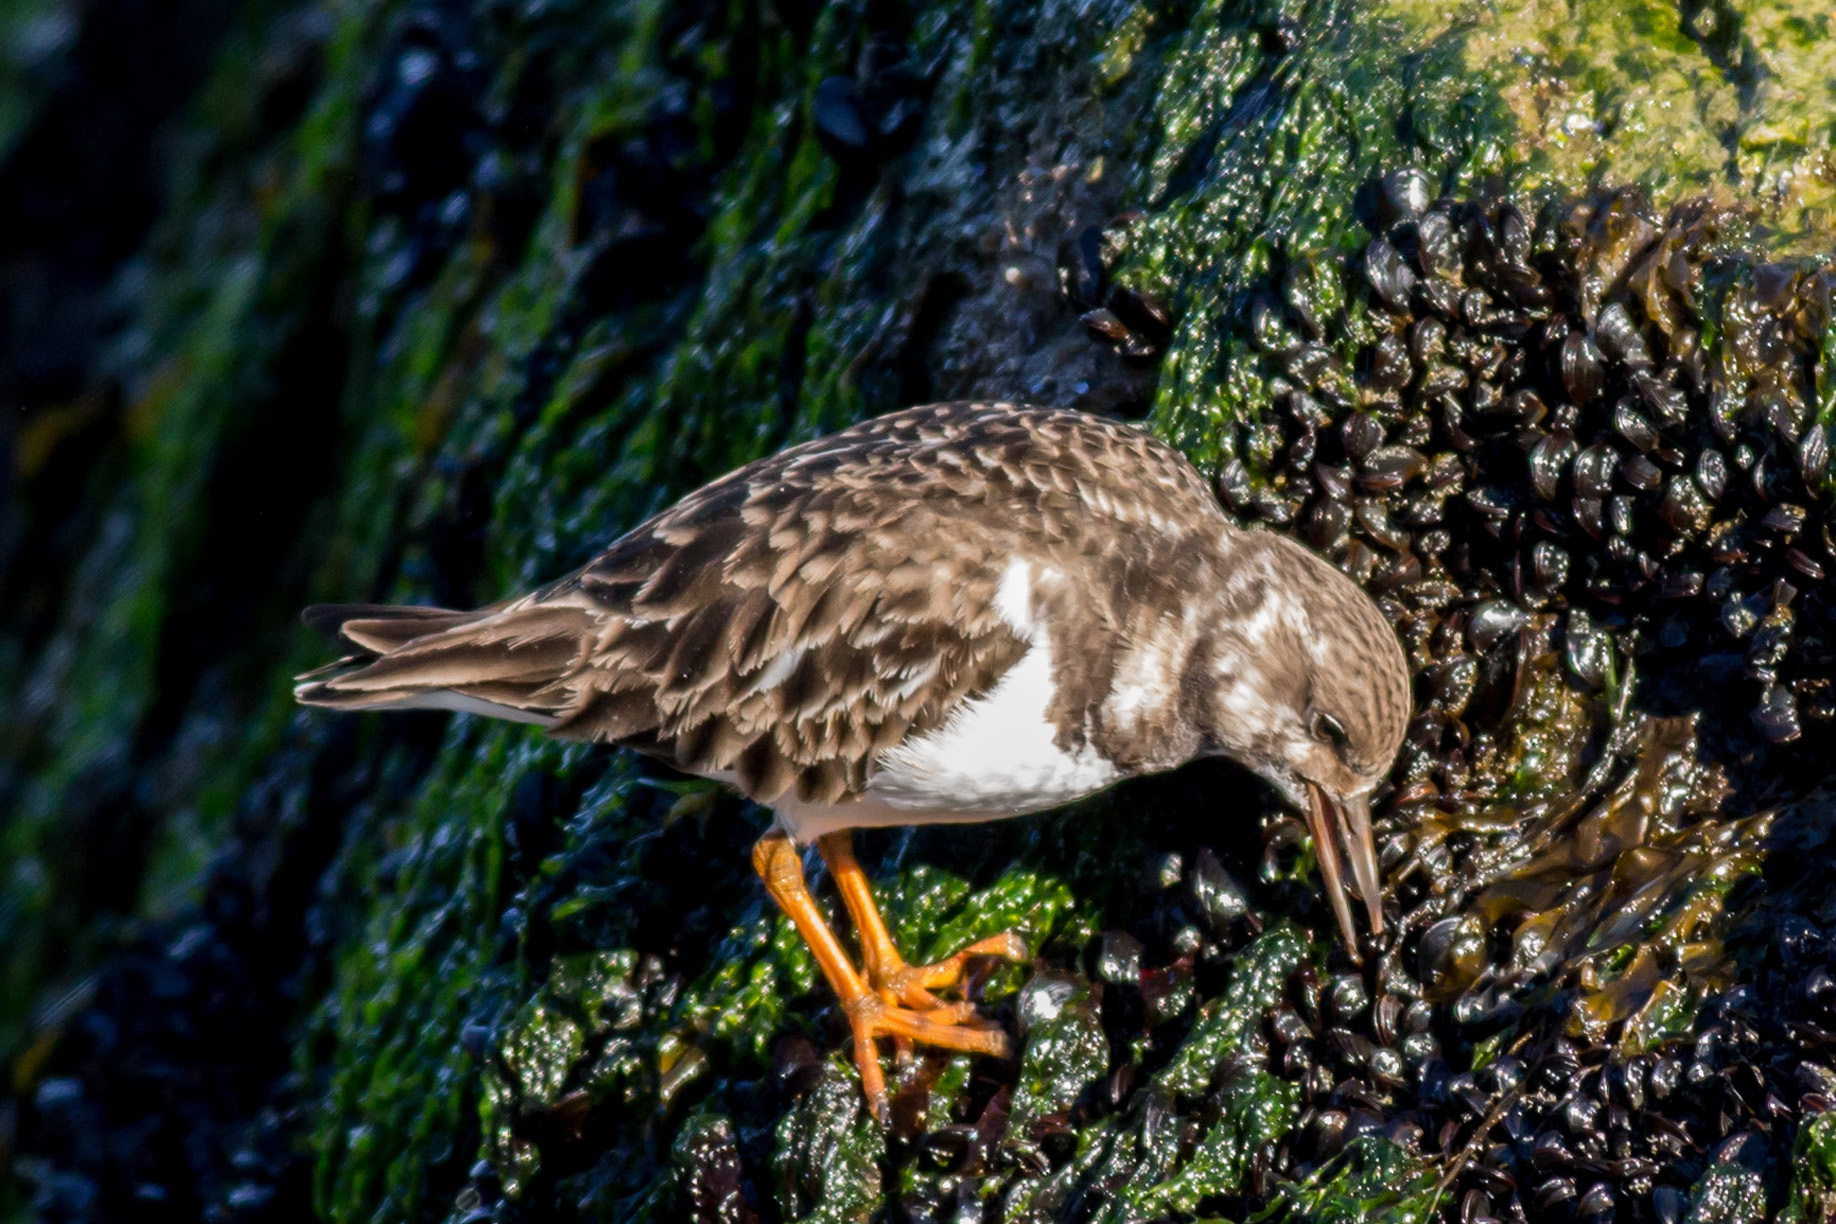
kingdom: Animalia
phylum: Chordata
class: Aves
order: Charadriiformes
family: Scolopacidae
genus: Arenaria
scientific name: Arenaria interpres
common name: Ruddy turnstone
